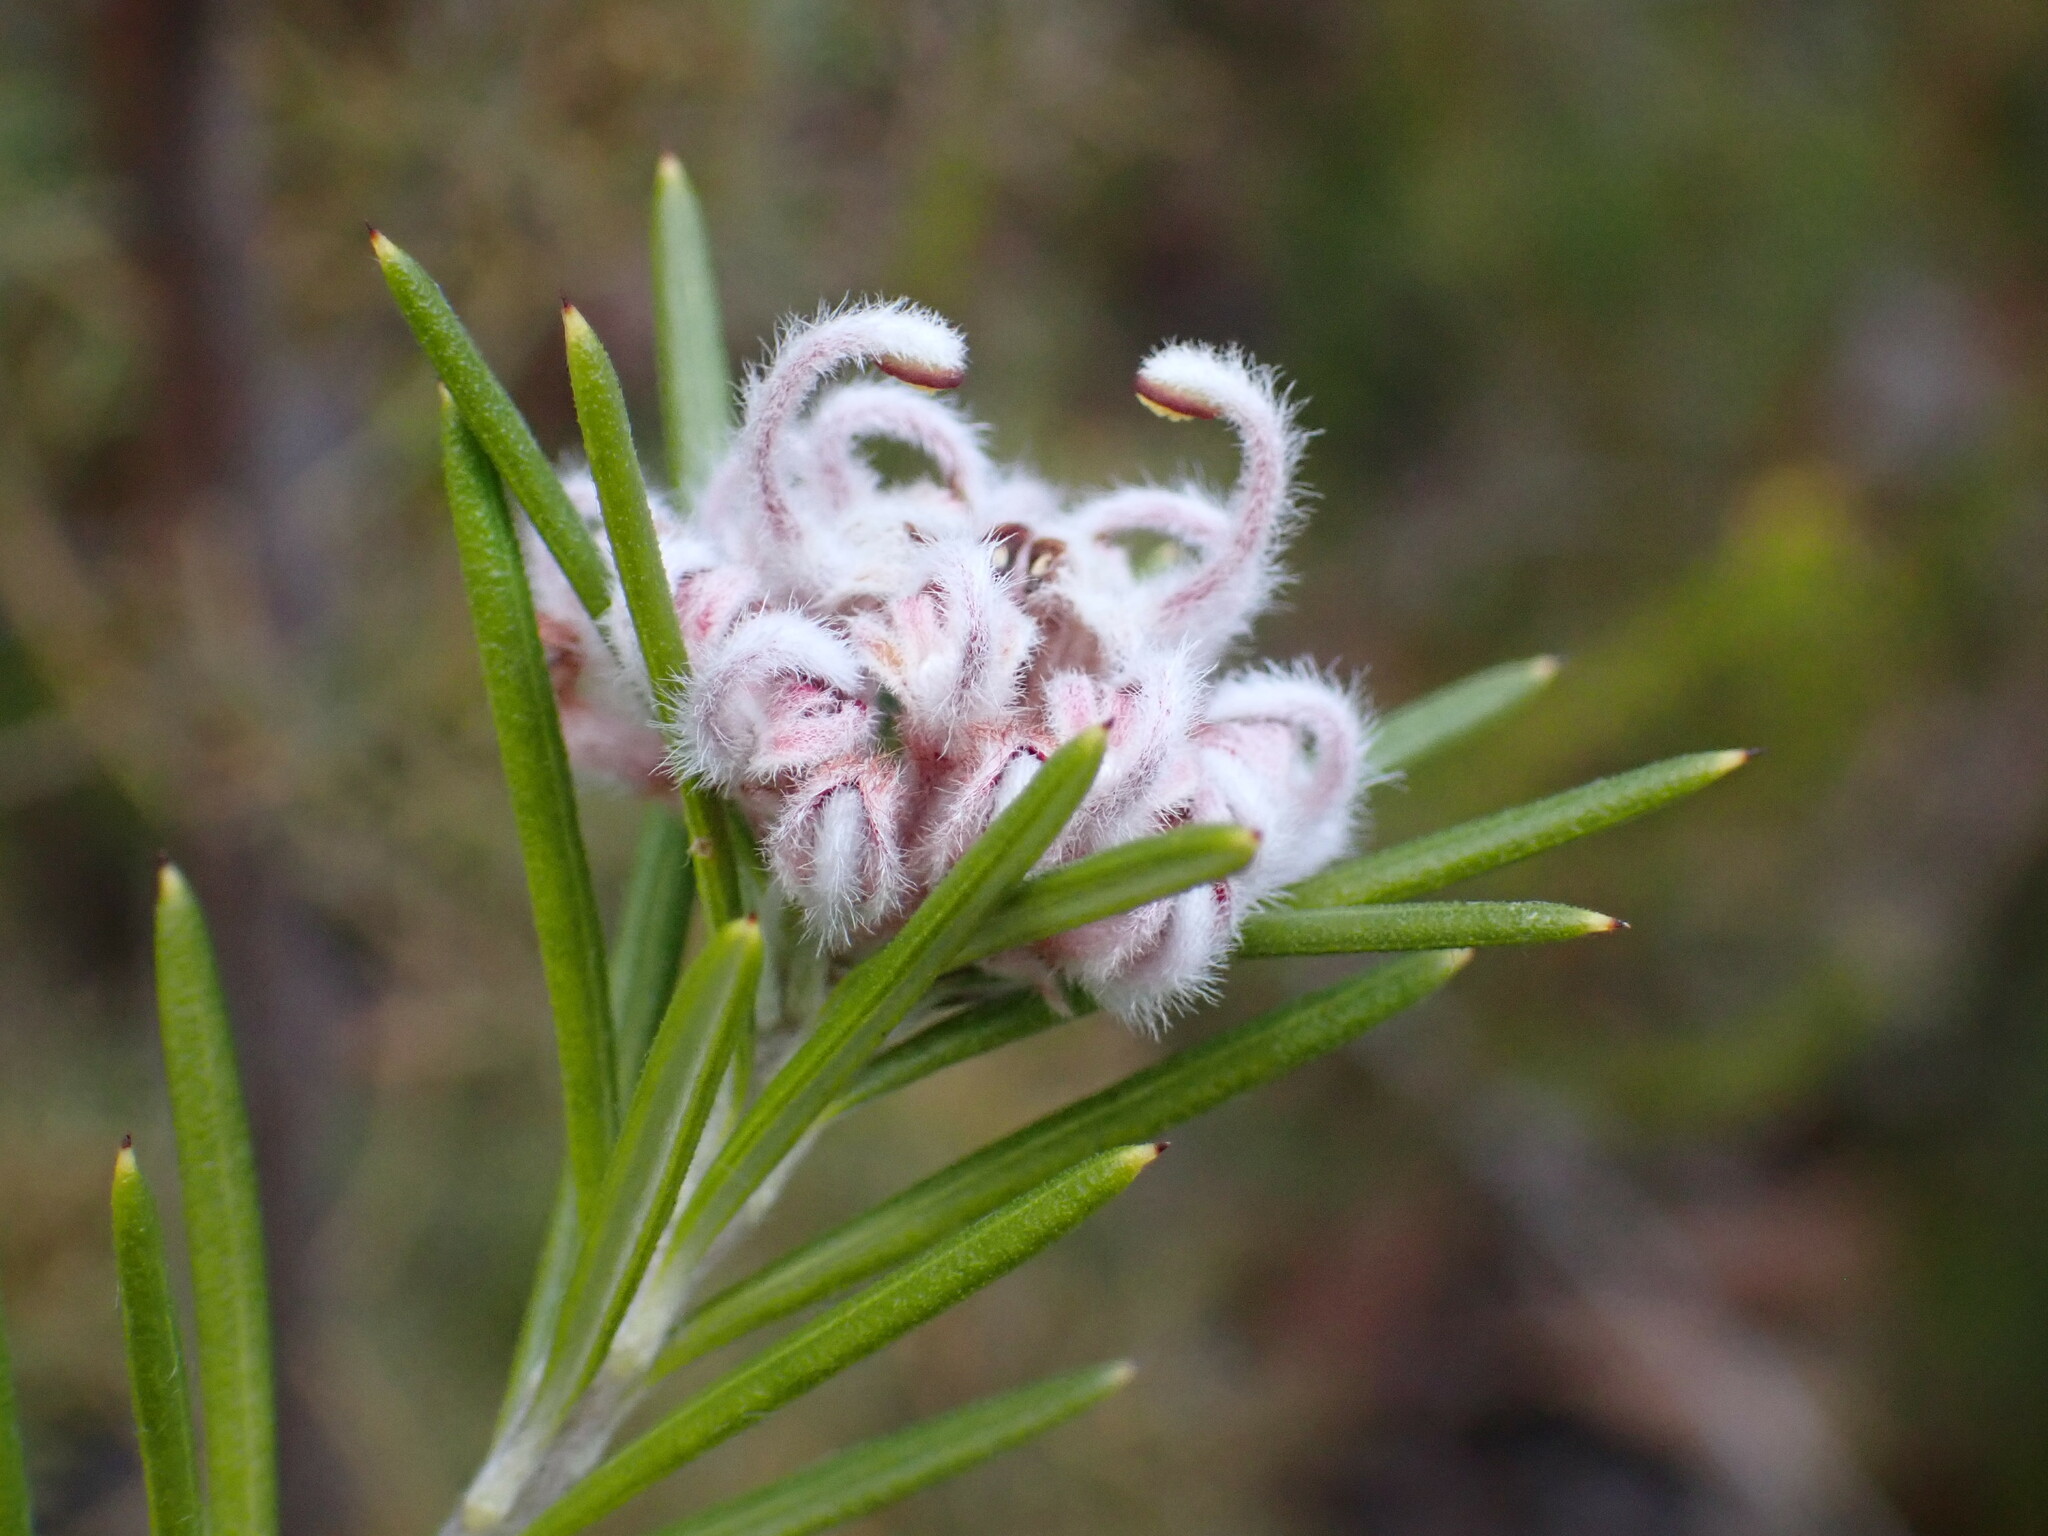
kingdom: Plantae
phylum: Tracheophyta
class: Magnoliopsida
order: Proteales
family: Proteaceae
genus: Grevillea
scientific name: Grevillea acerata
